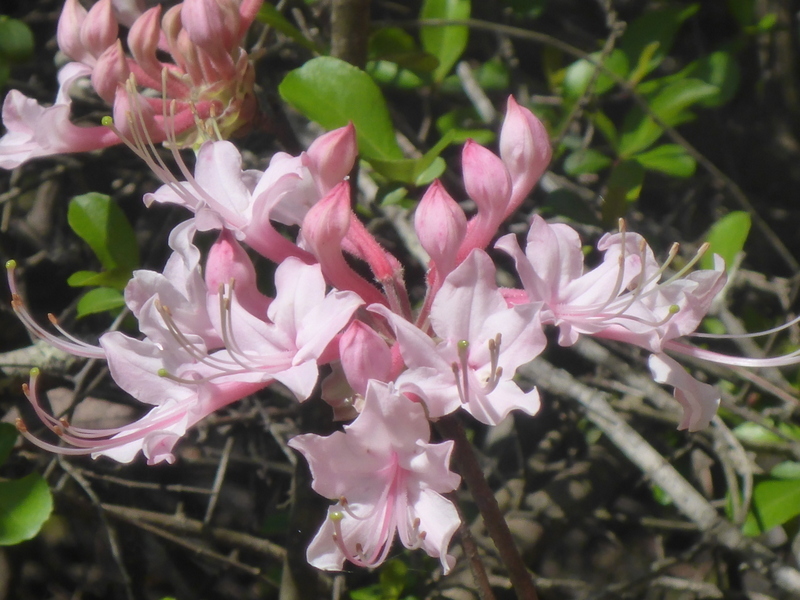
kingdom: Plantae
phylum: Tracheophyta
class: Magnoliopsida
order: Ericales
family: Ericaceae
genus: Rhododendron
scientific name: Rhododendron canescens
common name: Mountain azalea
